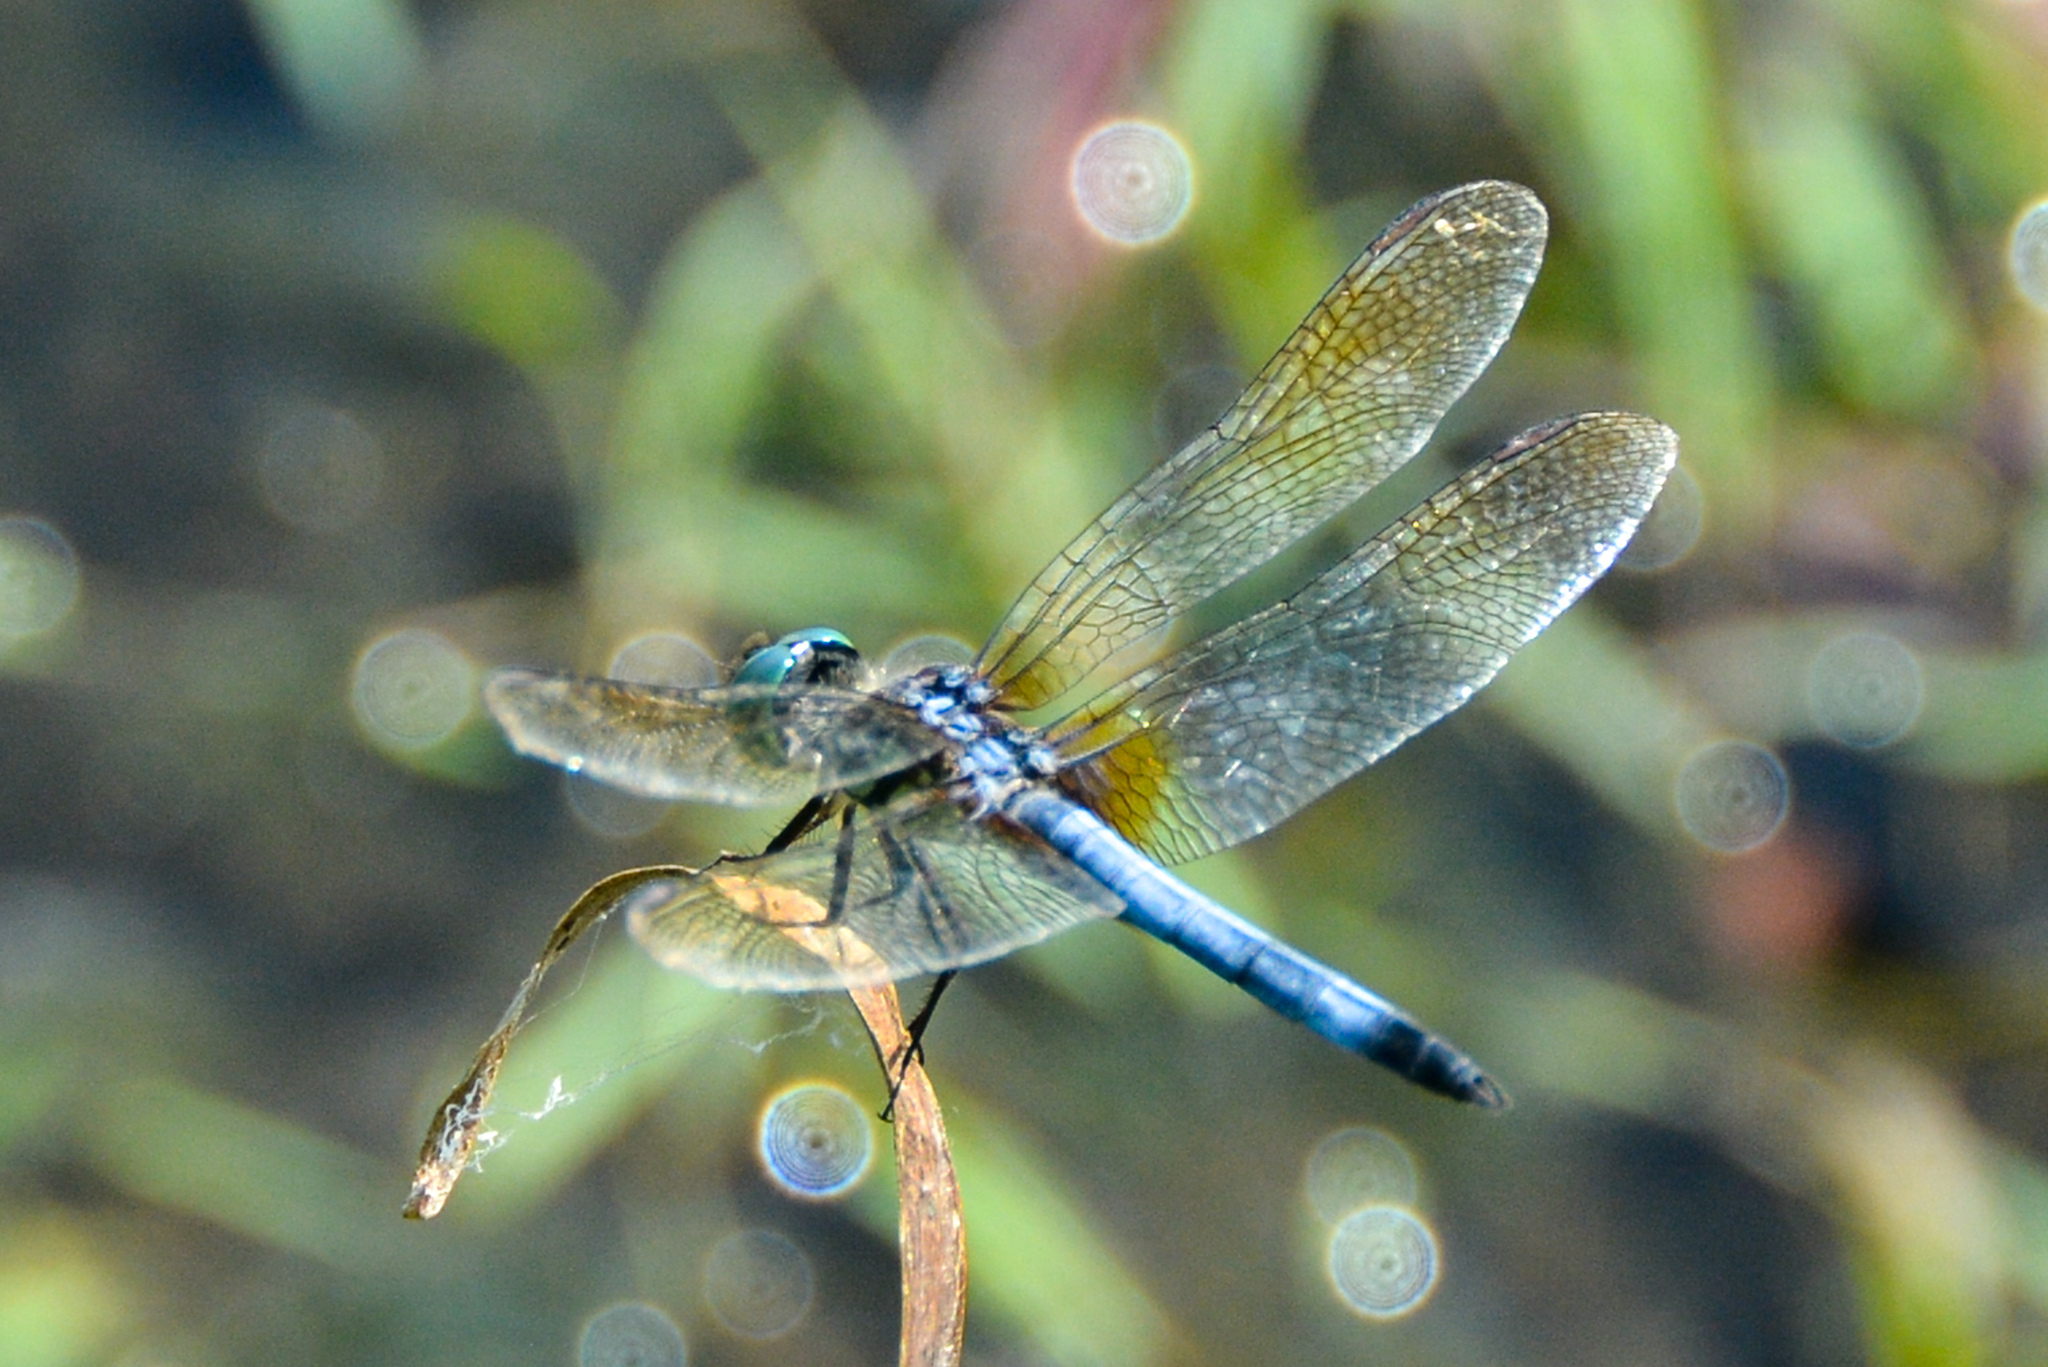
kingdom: Animalia
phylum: Arthropoda
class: Insecta
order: Odonata
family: Libellulidae
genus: Pachydiplax
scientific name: Pachydiplax longipennis
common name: Blue dasher
